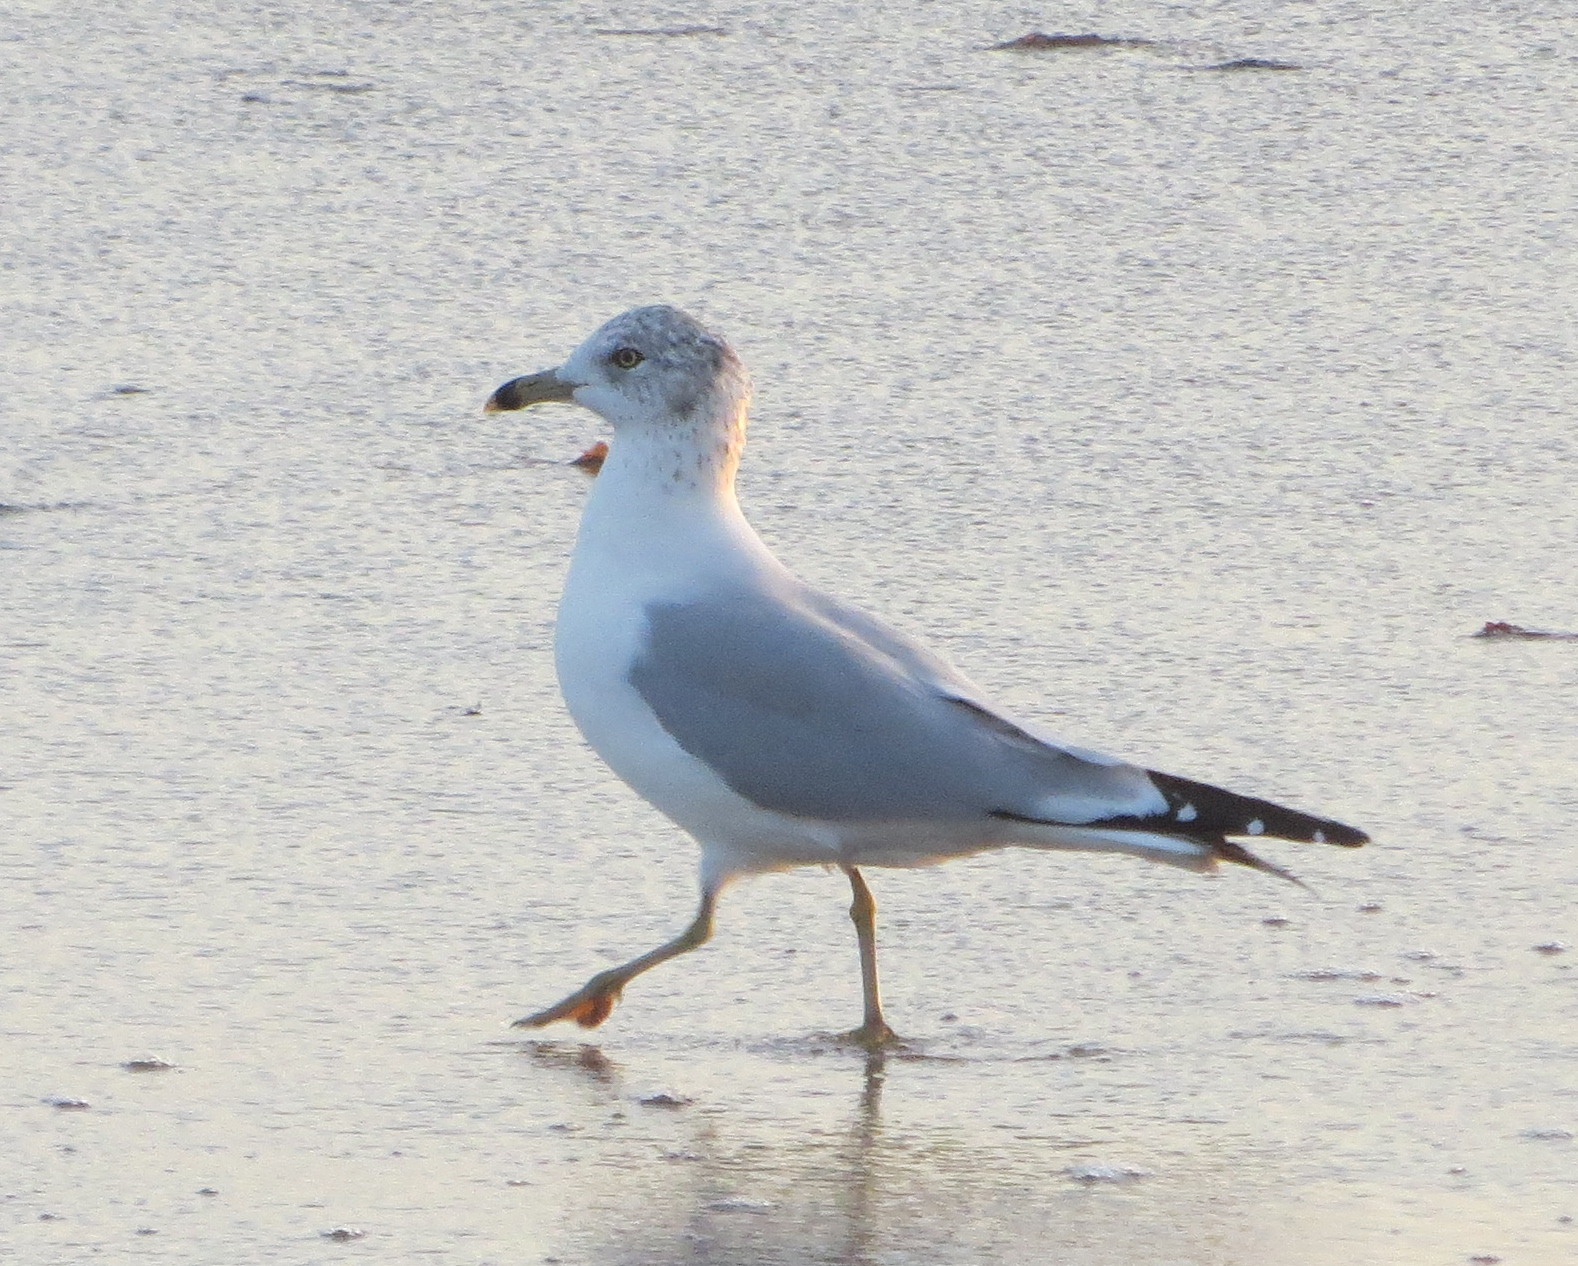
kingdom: Animalia
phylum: Chordata
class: Aves
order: Charadriiformes
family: Laridae
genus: Larus
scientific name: Larus delawarensis
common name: Ring-billed gull
